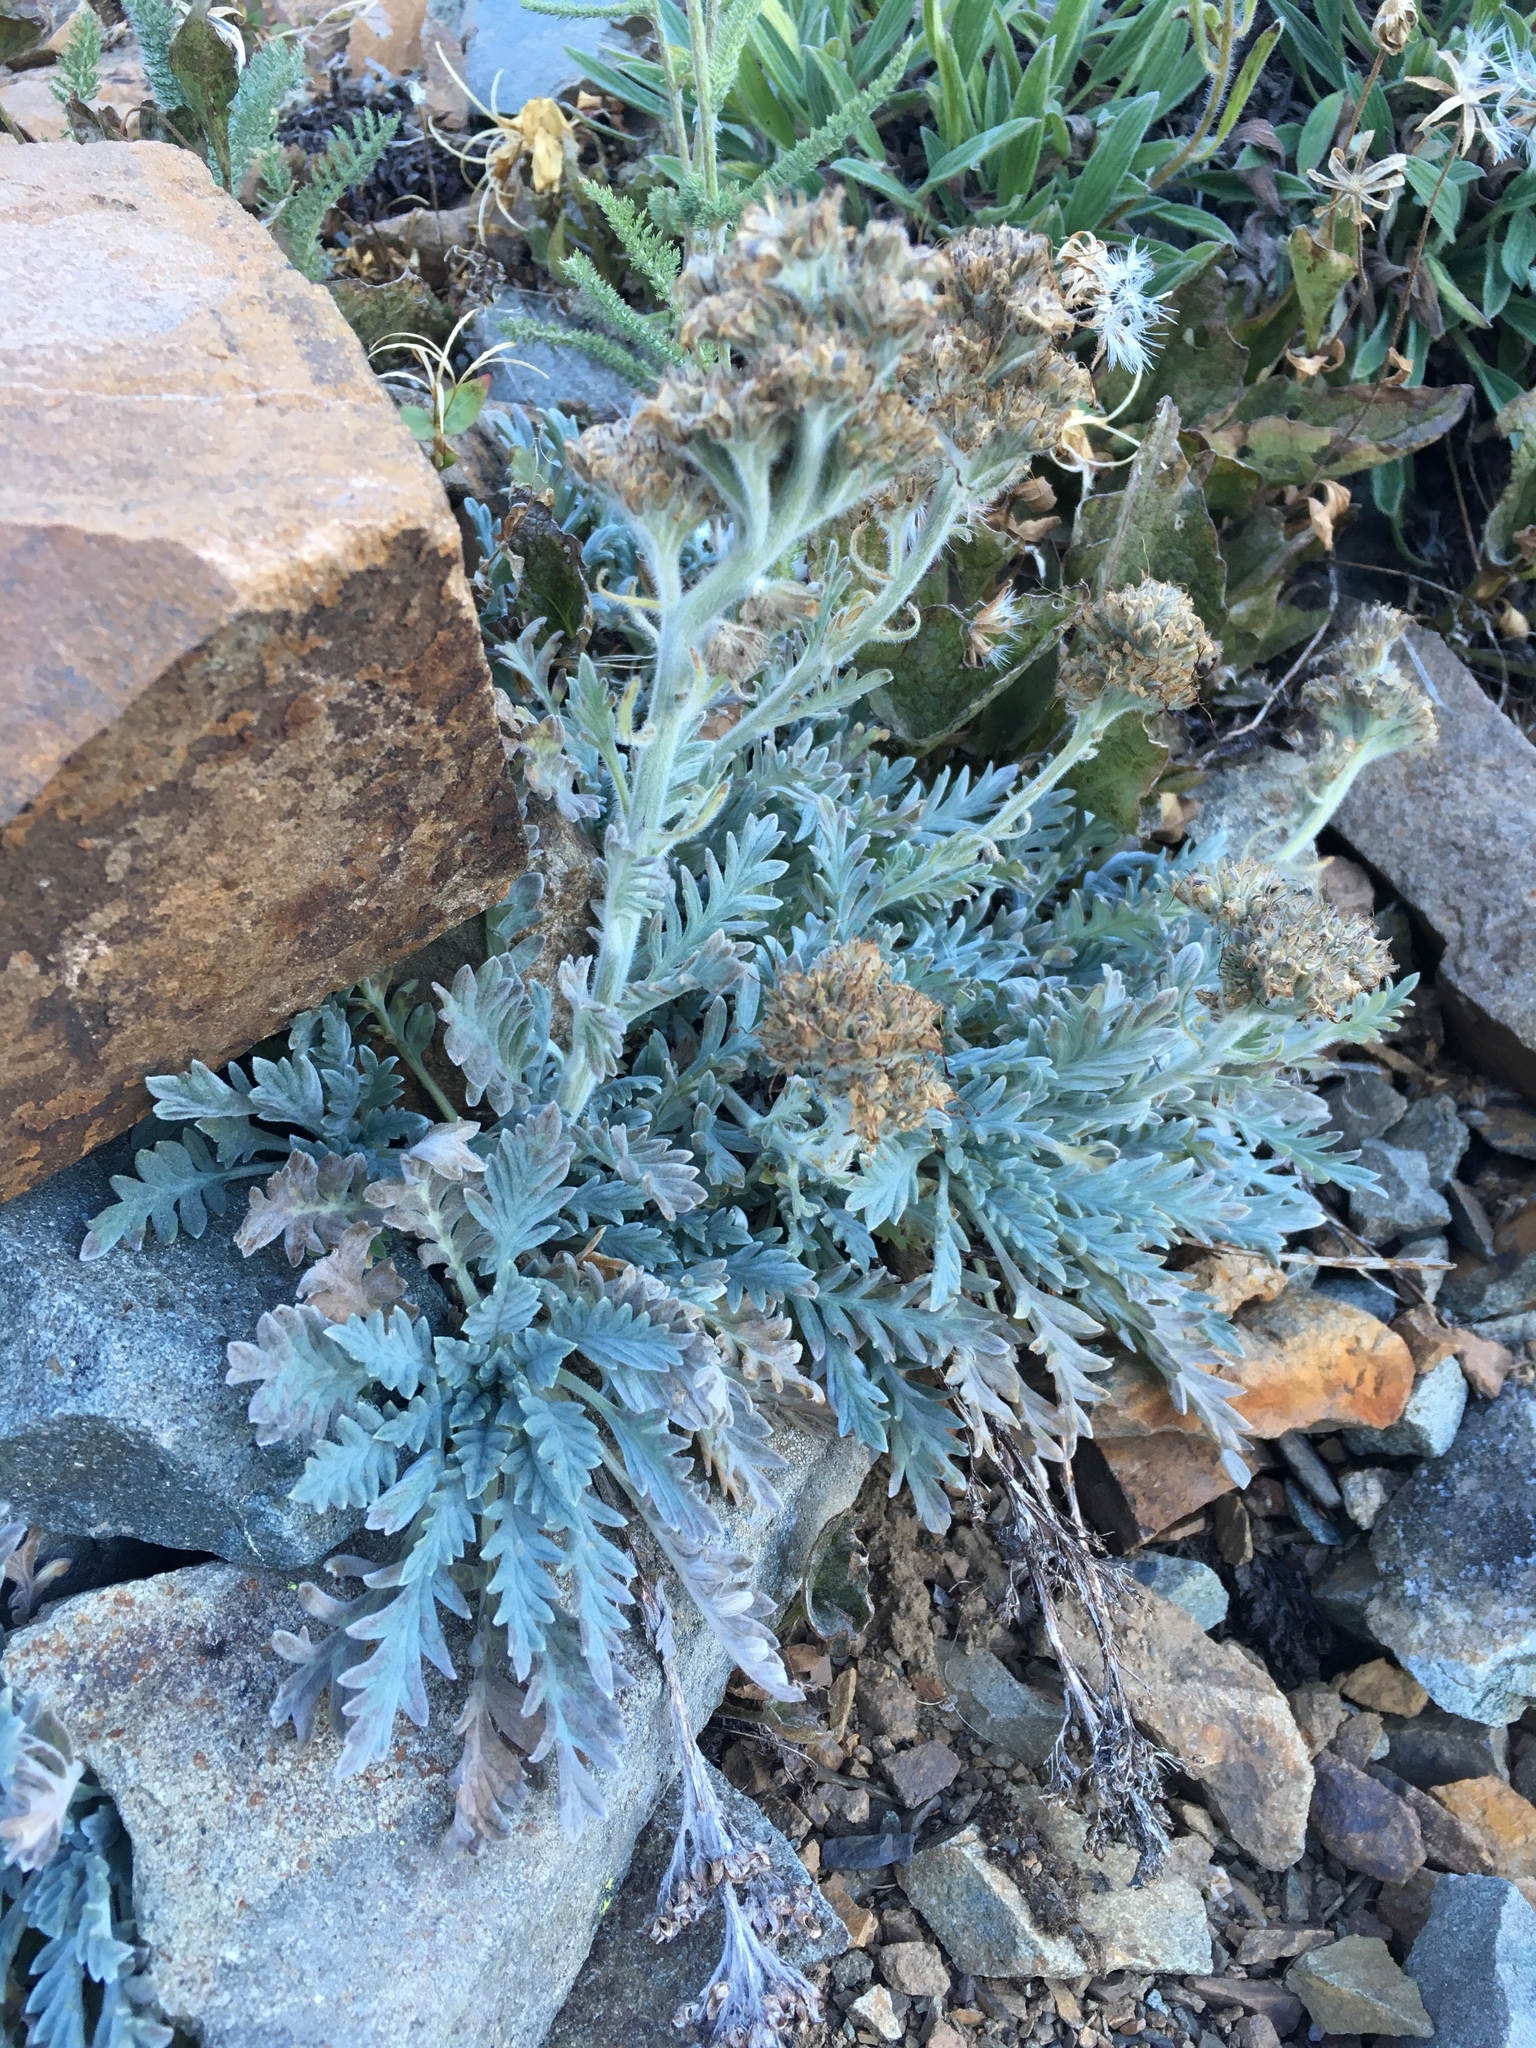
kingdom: Plantae
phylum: Tracheophyta
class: Magnoliopsida
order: Boraginales
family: Hydrophyllaceae
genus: Phacelia
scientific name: Phacelia sericea
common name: Silky phacelia
